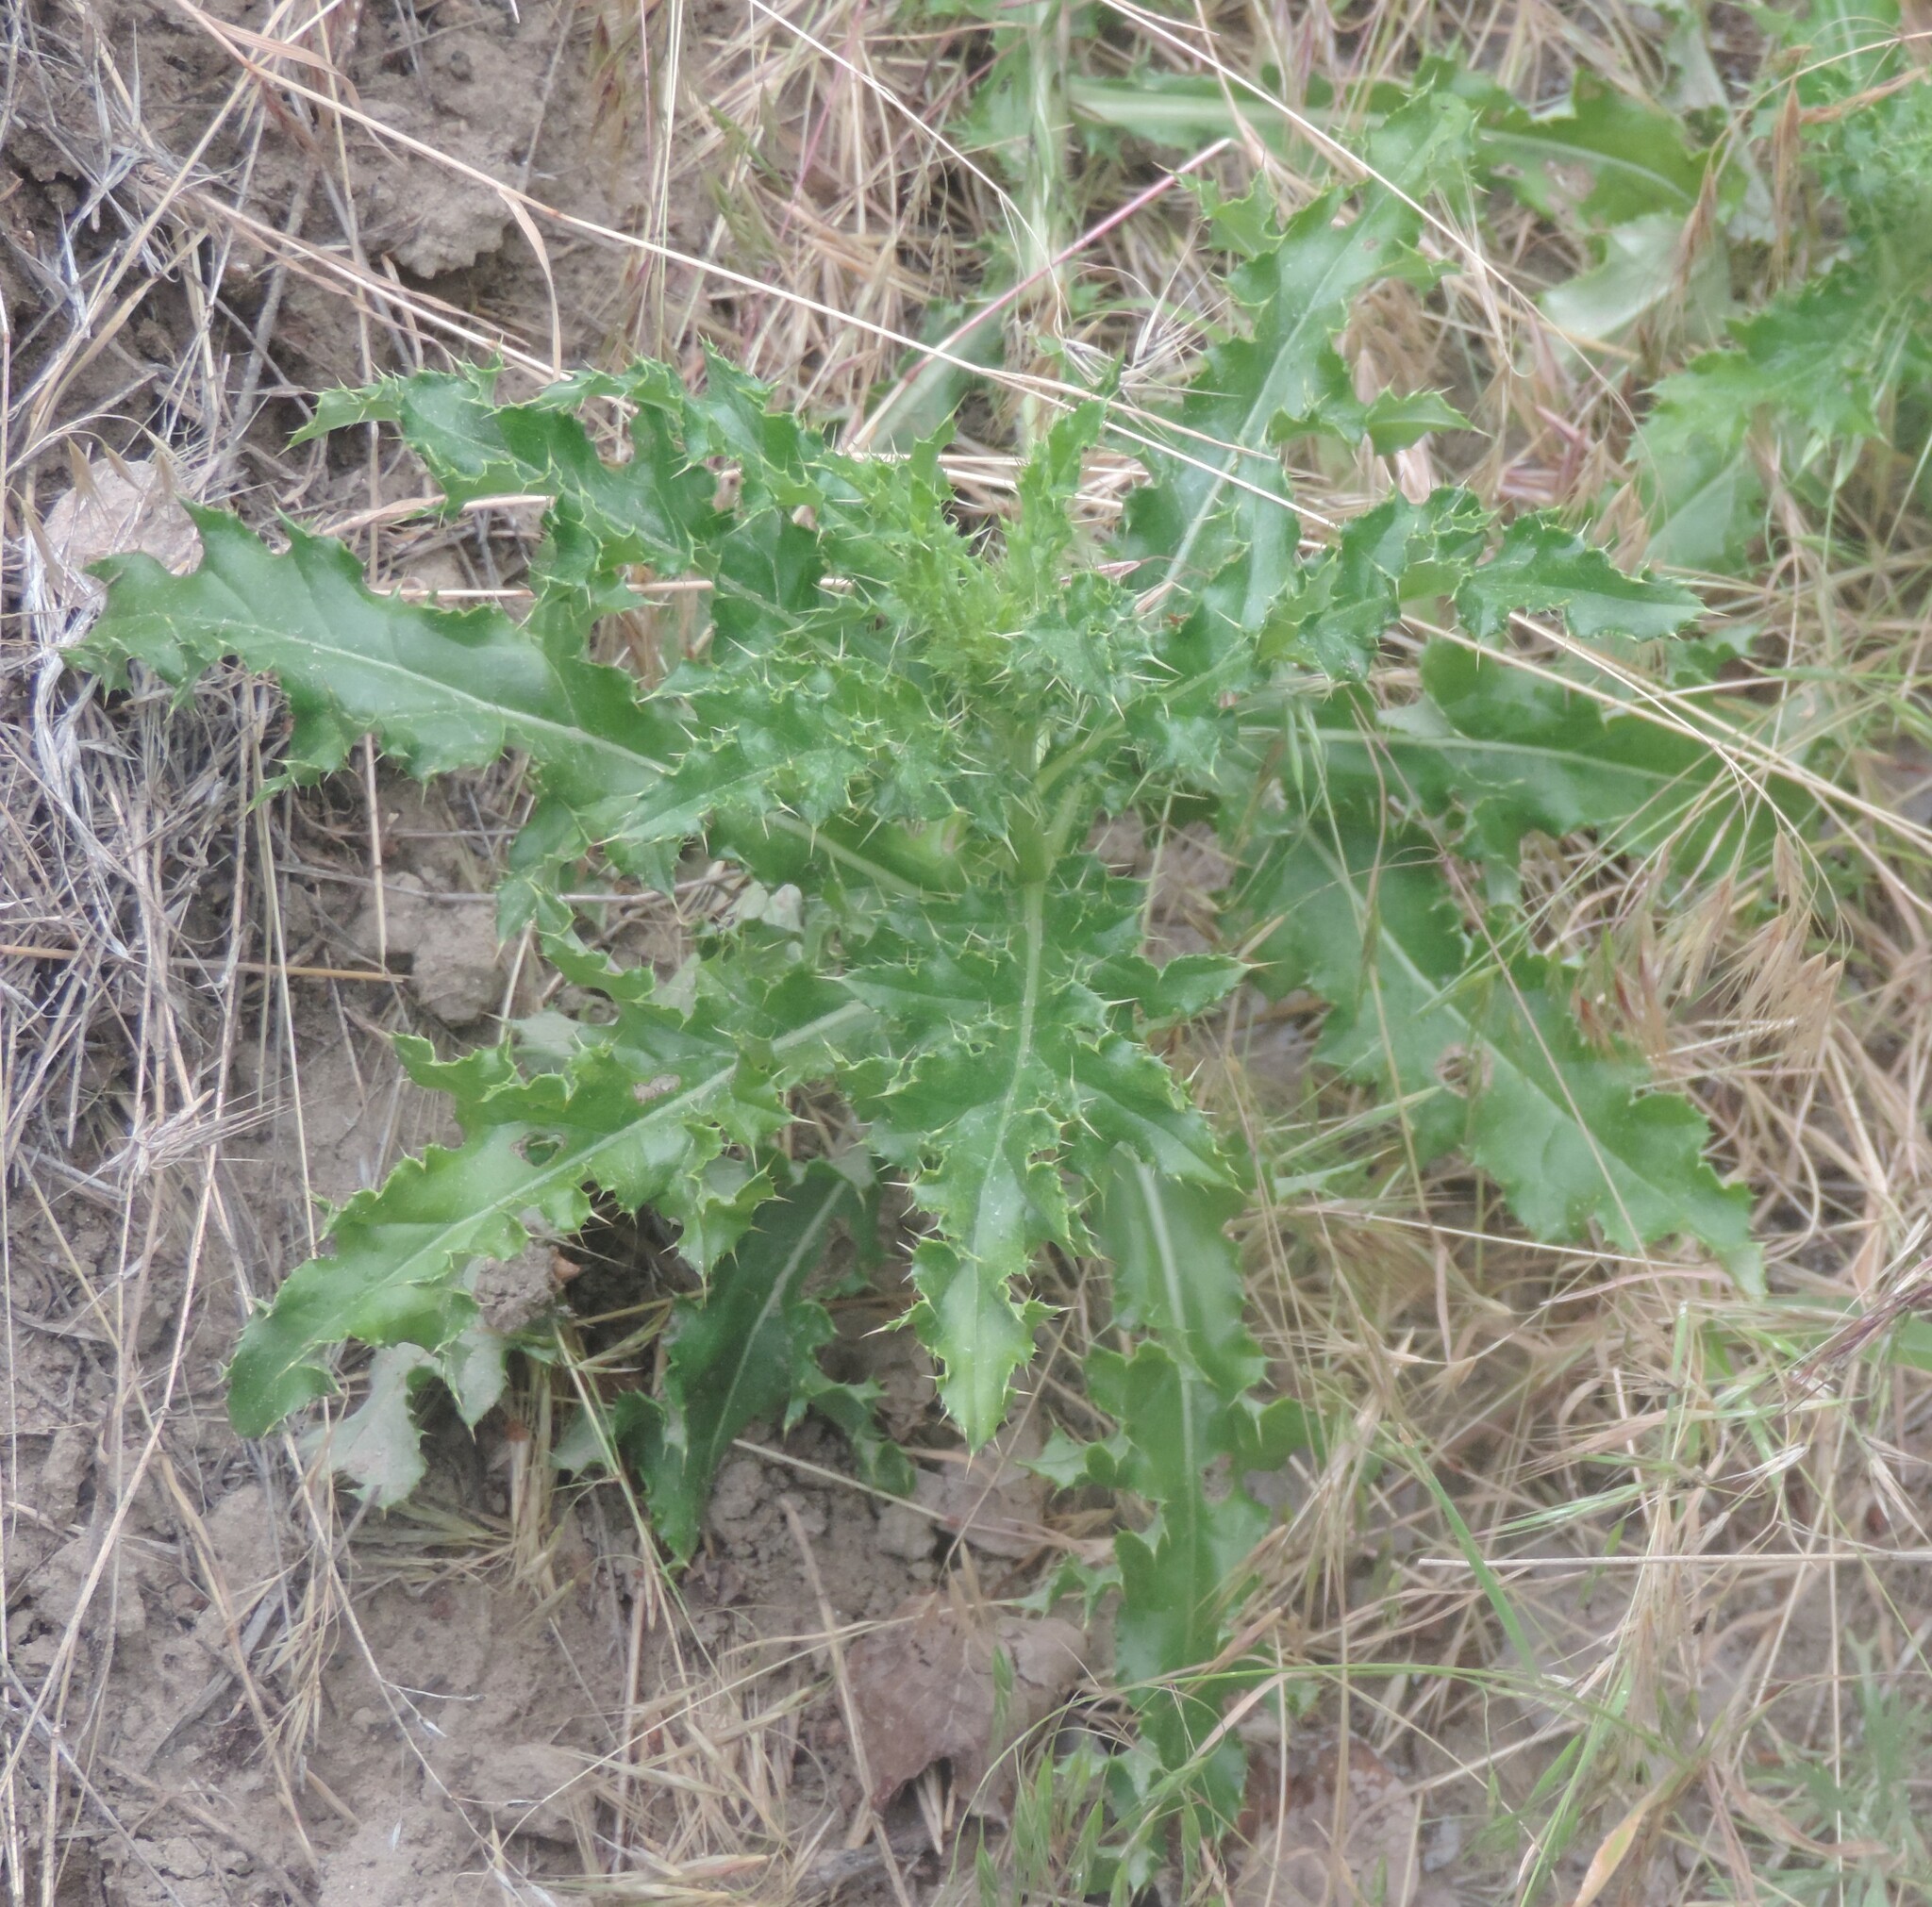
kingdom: Plantae
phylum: Tracheophyta
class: Magnoliopsida
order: Asterales
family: Asteraceae
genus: Cirsium
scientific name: Cirsium arvense
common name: Creeping thistle
